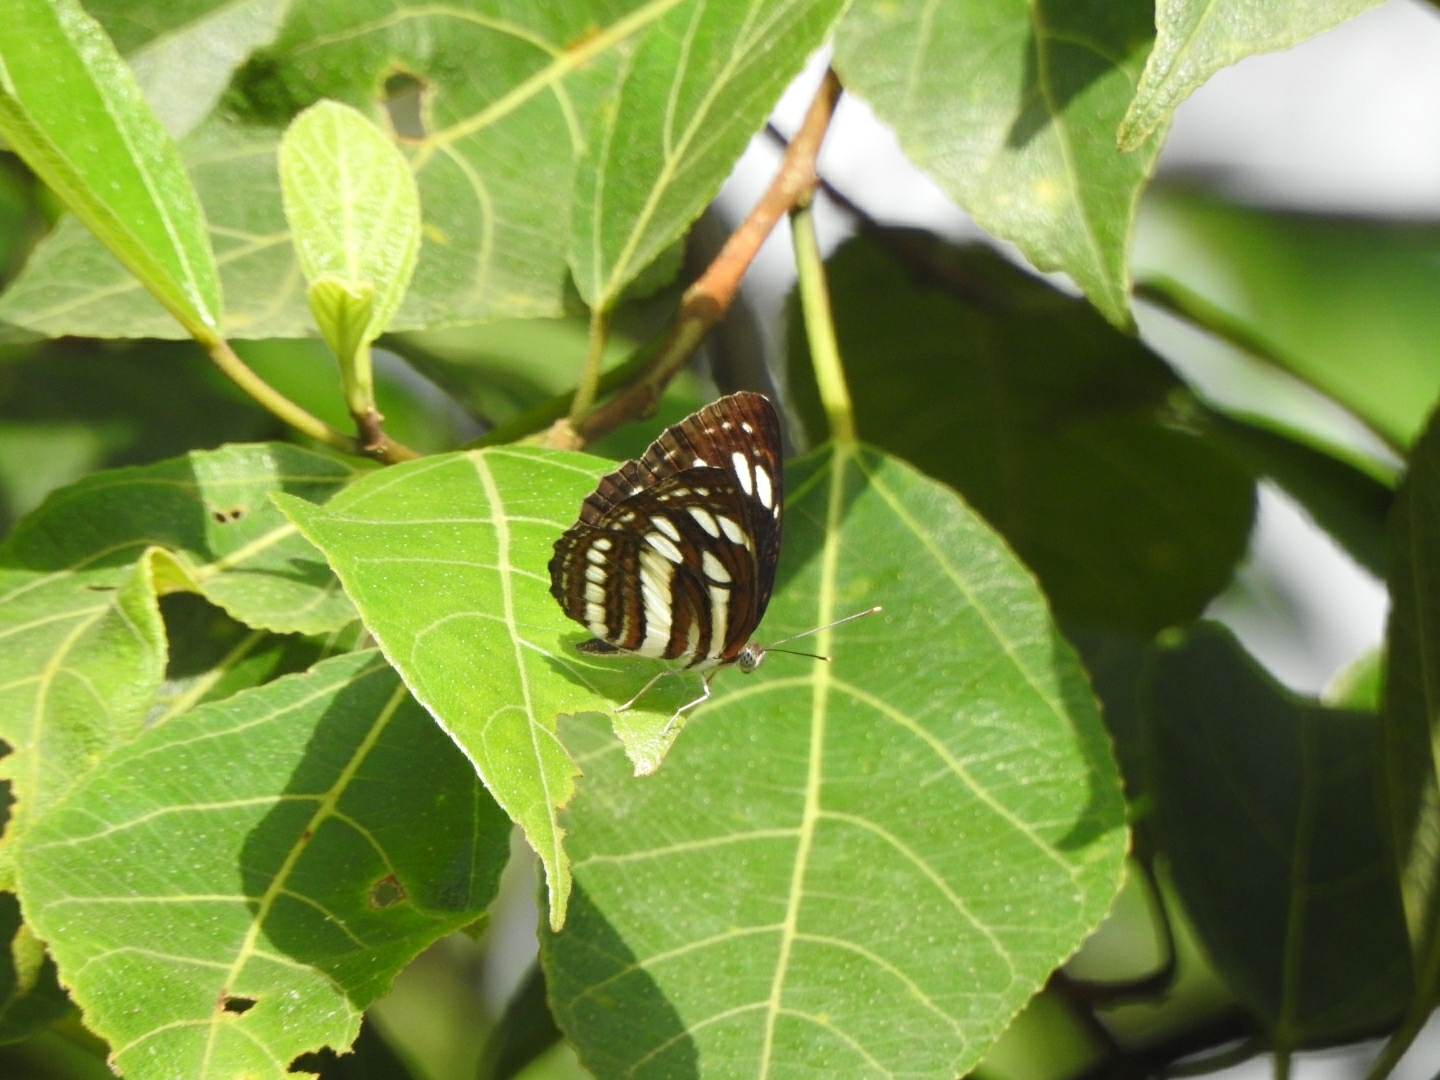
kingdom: Animalia
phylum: Arthropoda
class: Insecta
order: Lepidoptera
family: Nymphalidae
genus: Neptis
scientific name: Neptis hylas
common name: Common sailer
